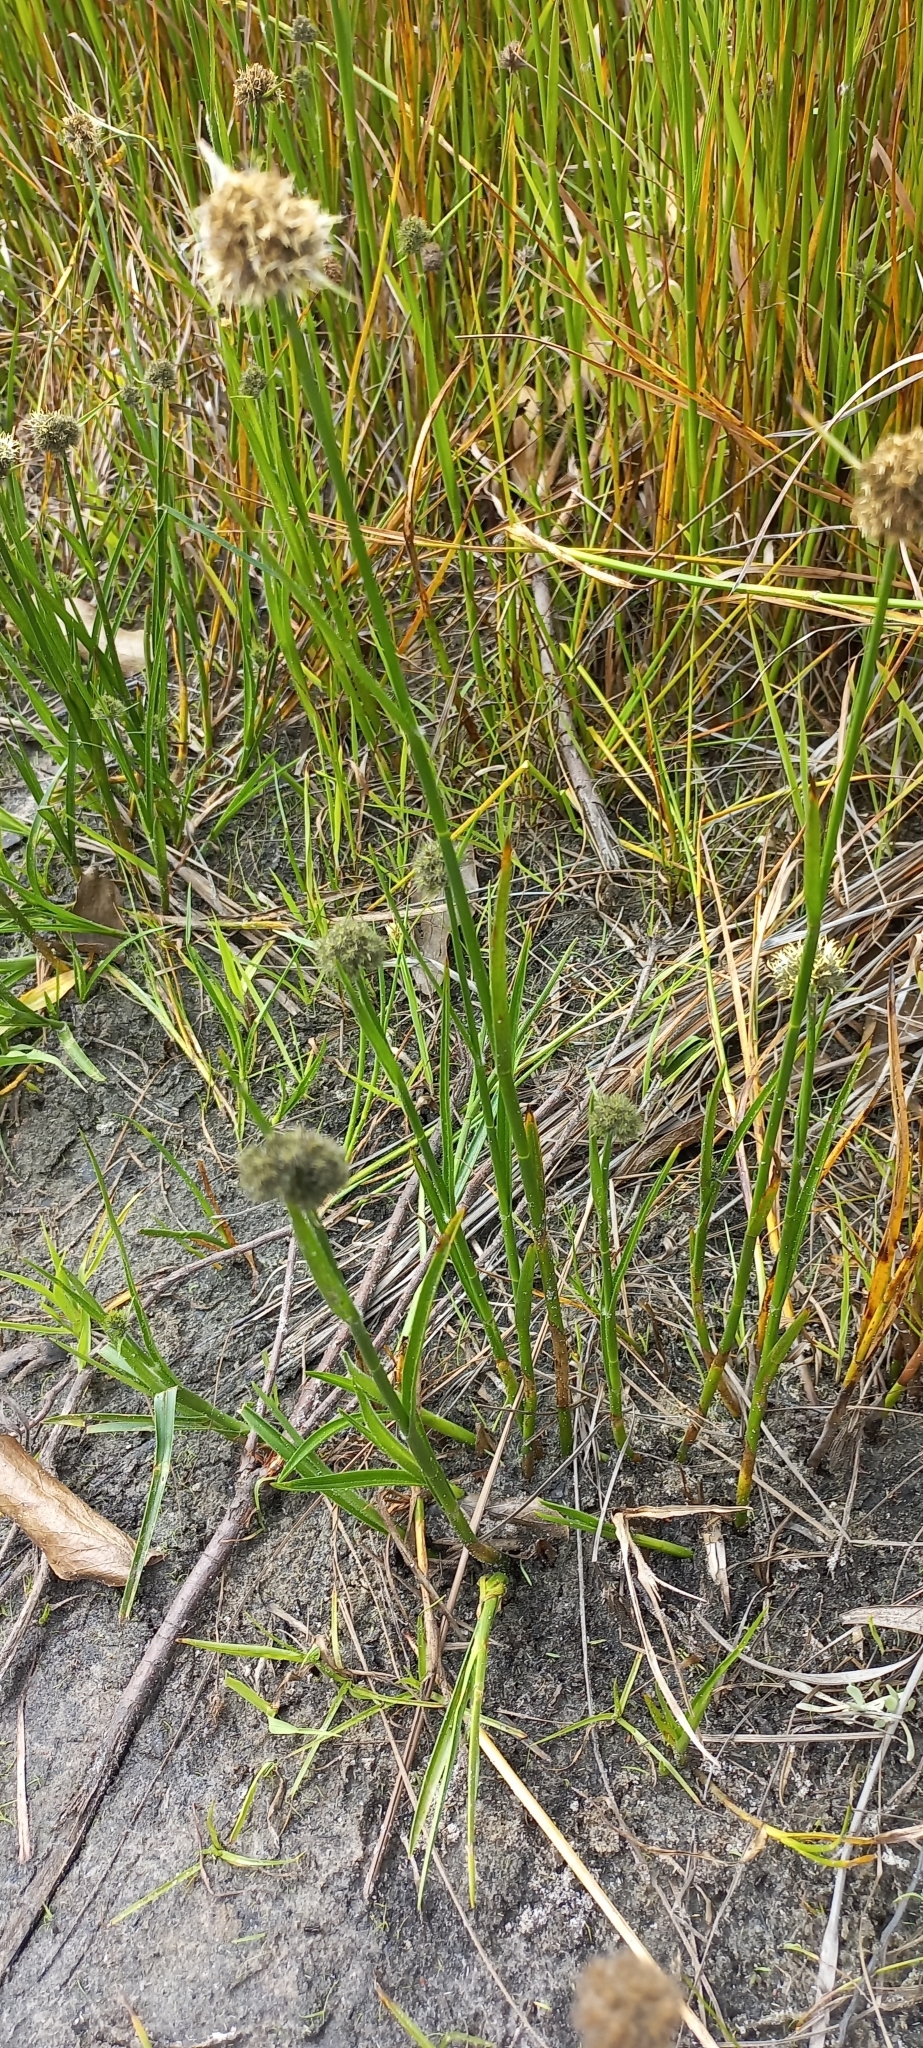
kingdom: Plantae
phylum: Tracheophyta
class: Liliopsida
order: Poales
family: Cyperaceae
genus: Fuirena
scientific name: Fuirena hirsuta
